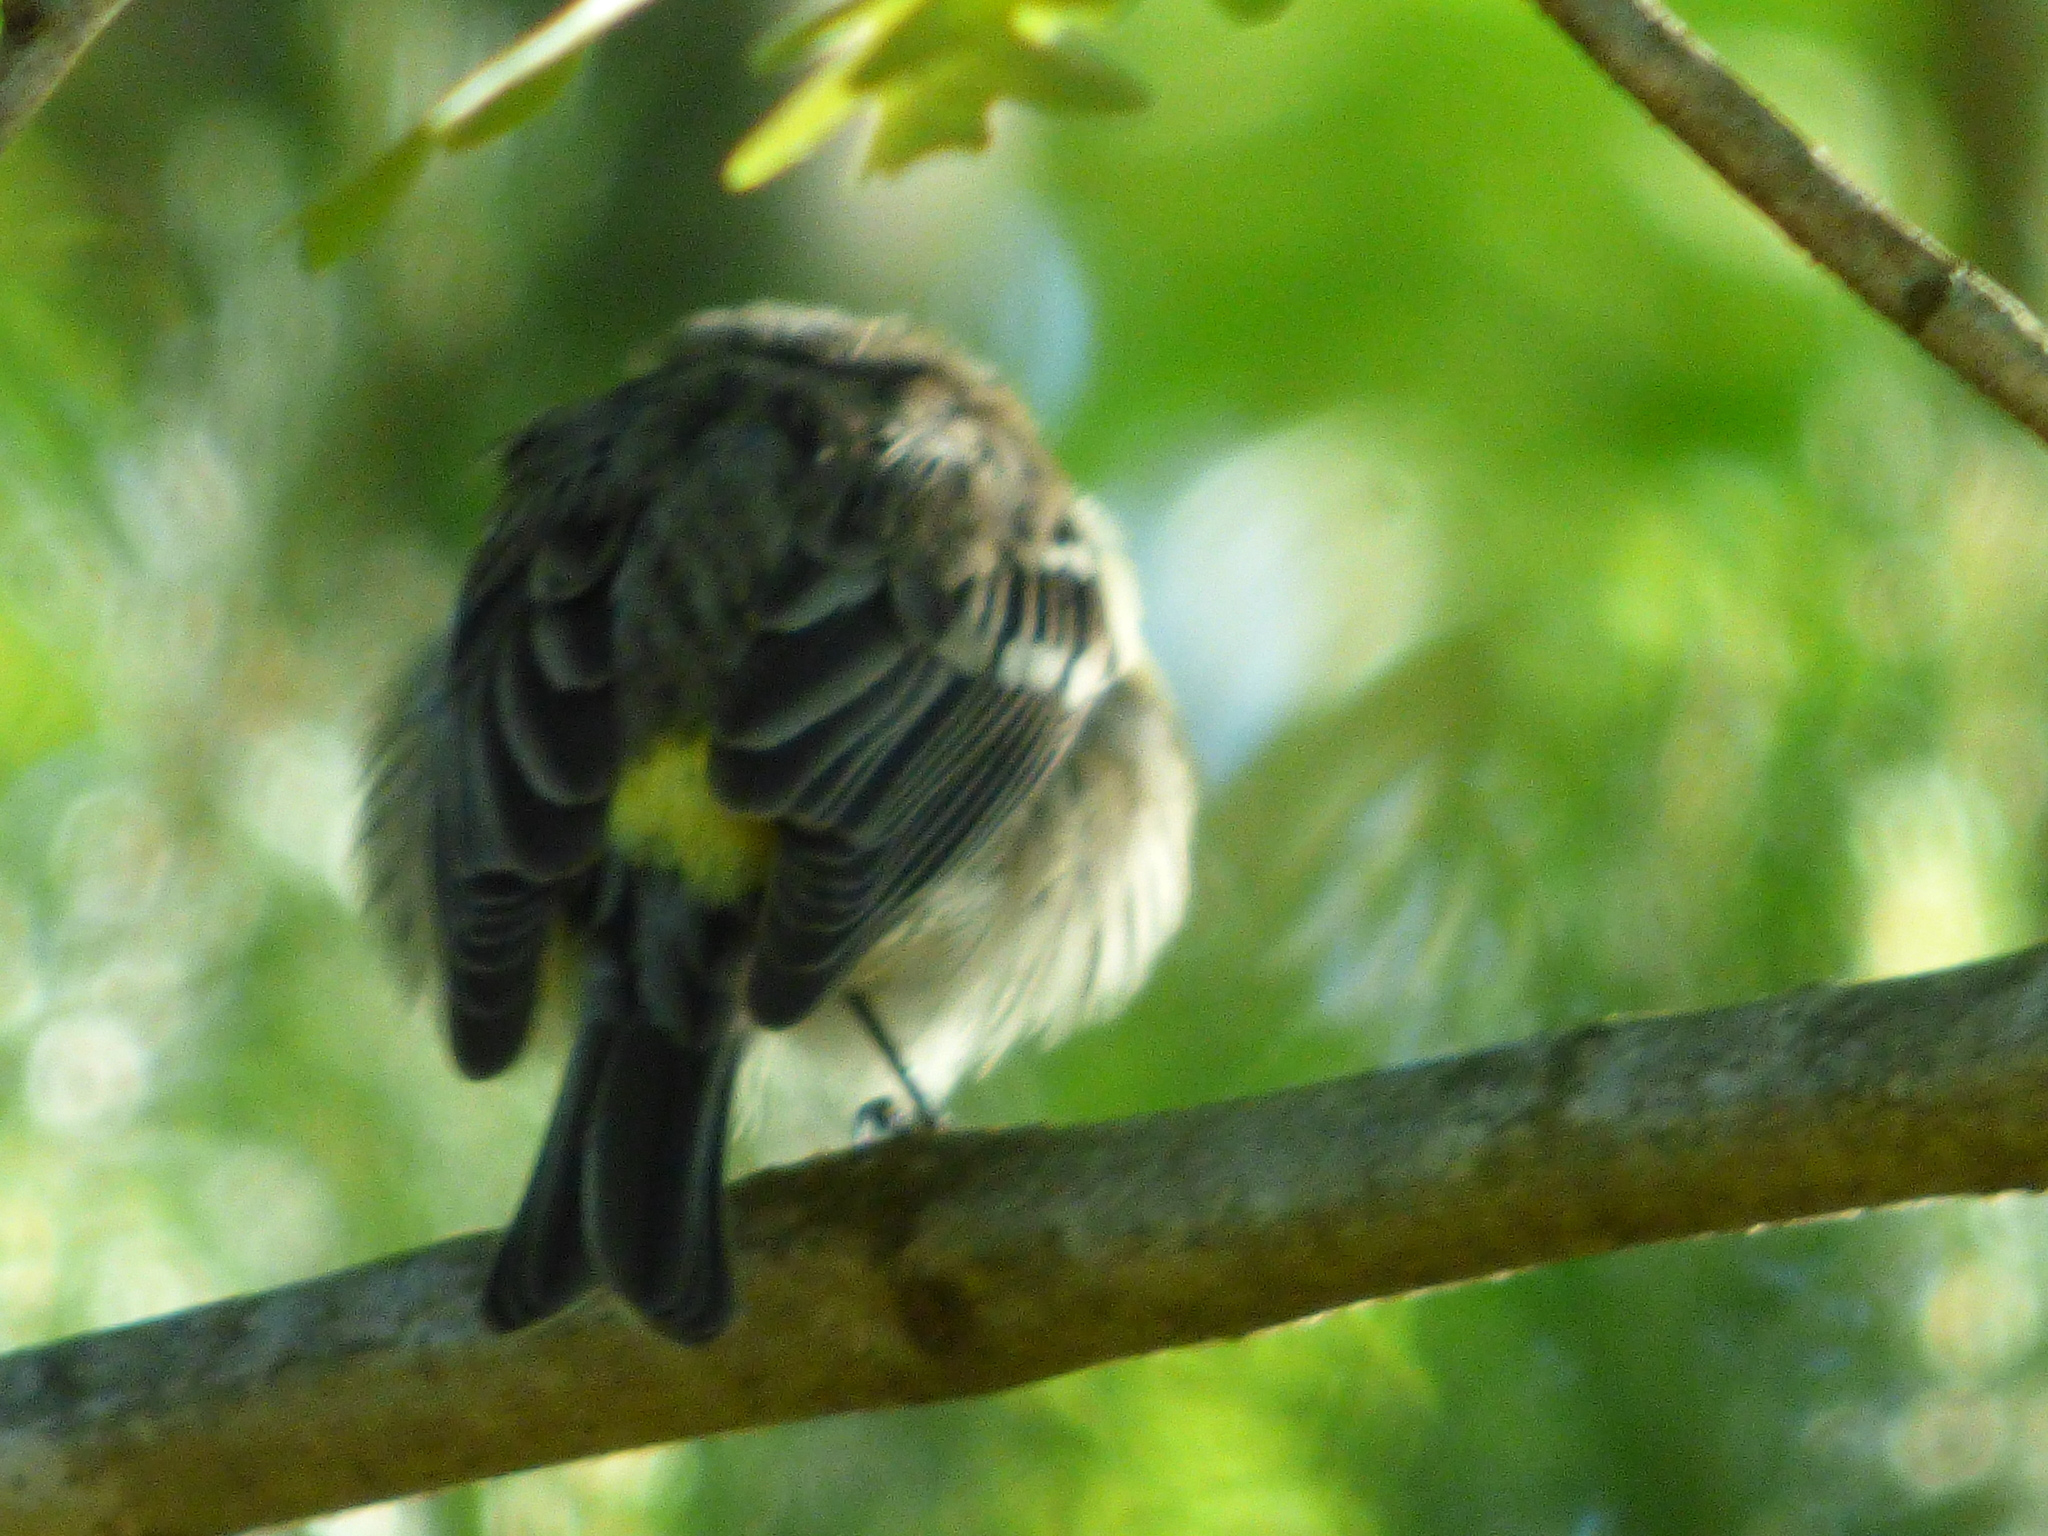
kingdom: Animalia
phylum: Chordata
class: Aves
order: Passeriformes
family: Parulidae
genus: Setophaga
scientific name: Setophaga coronata
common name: Myrtle warbler
